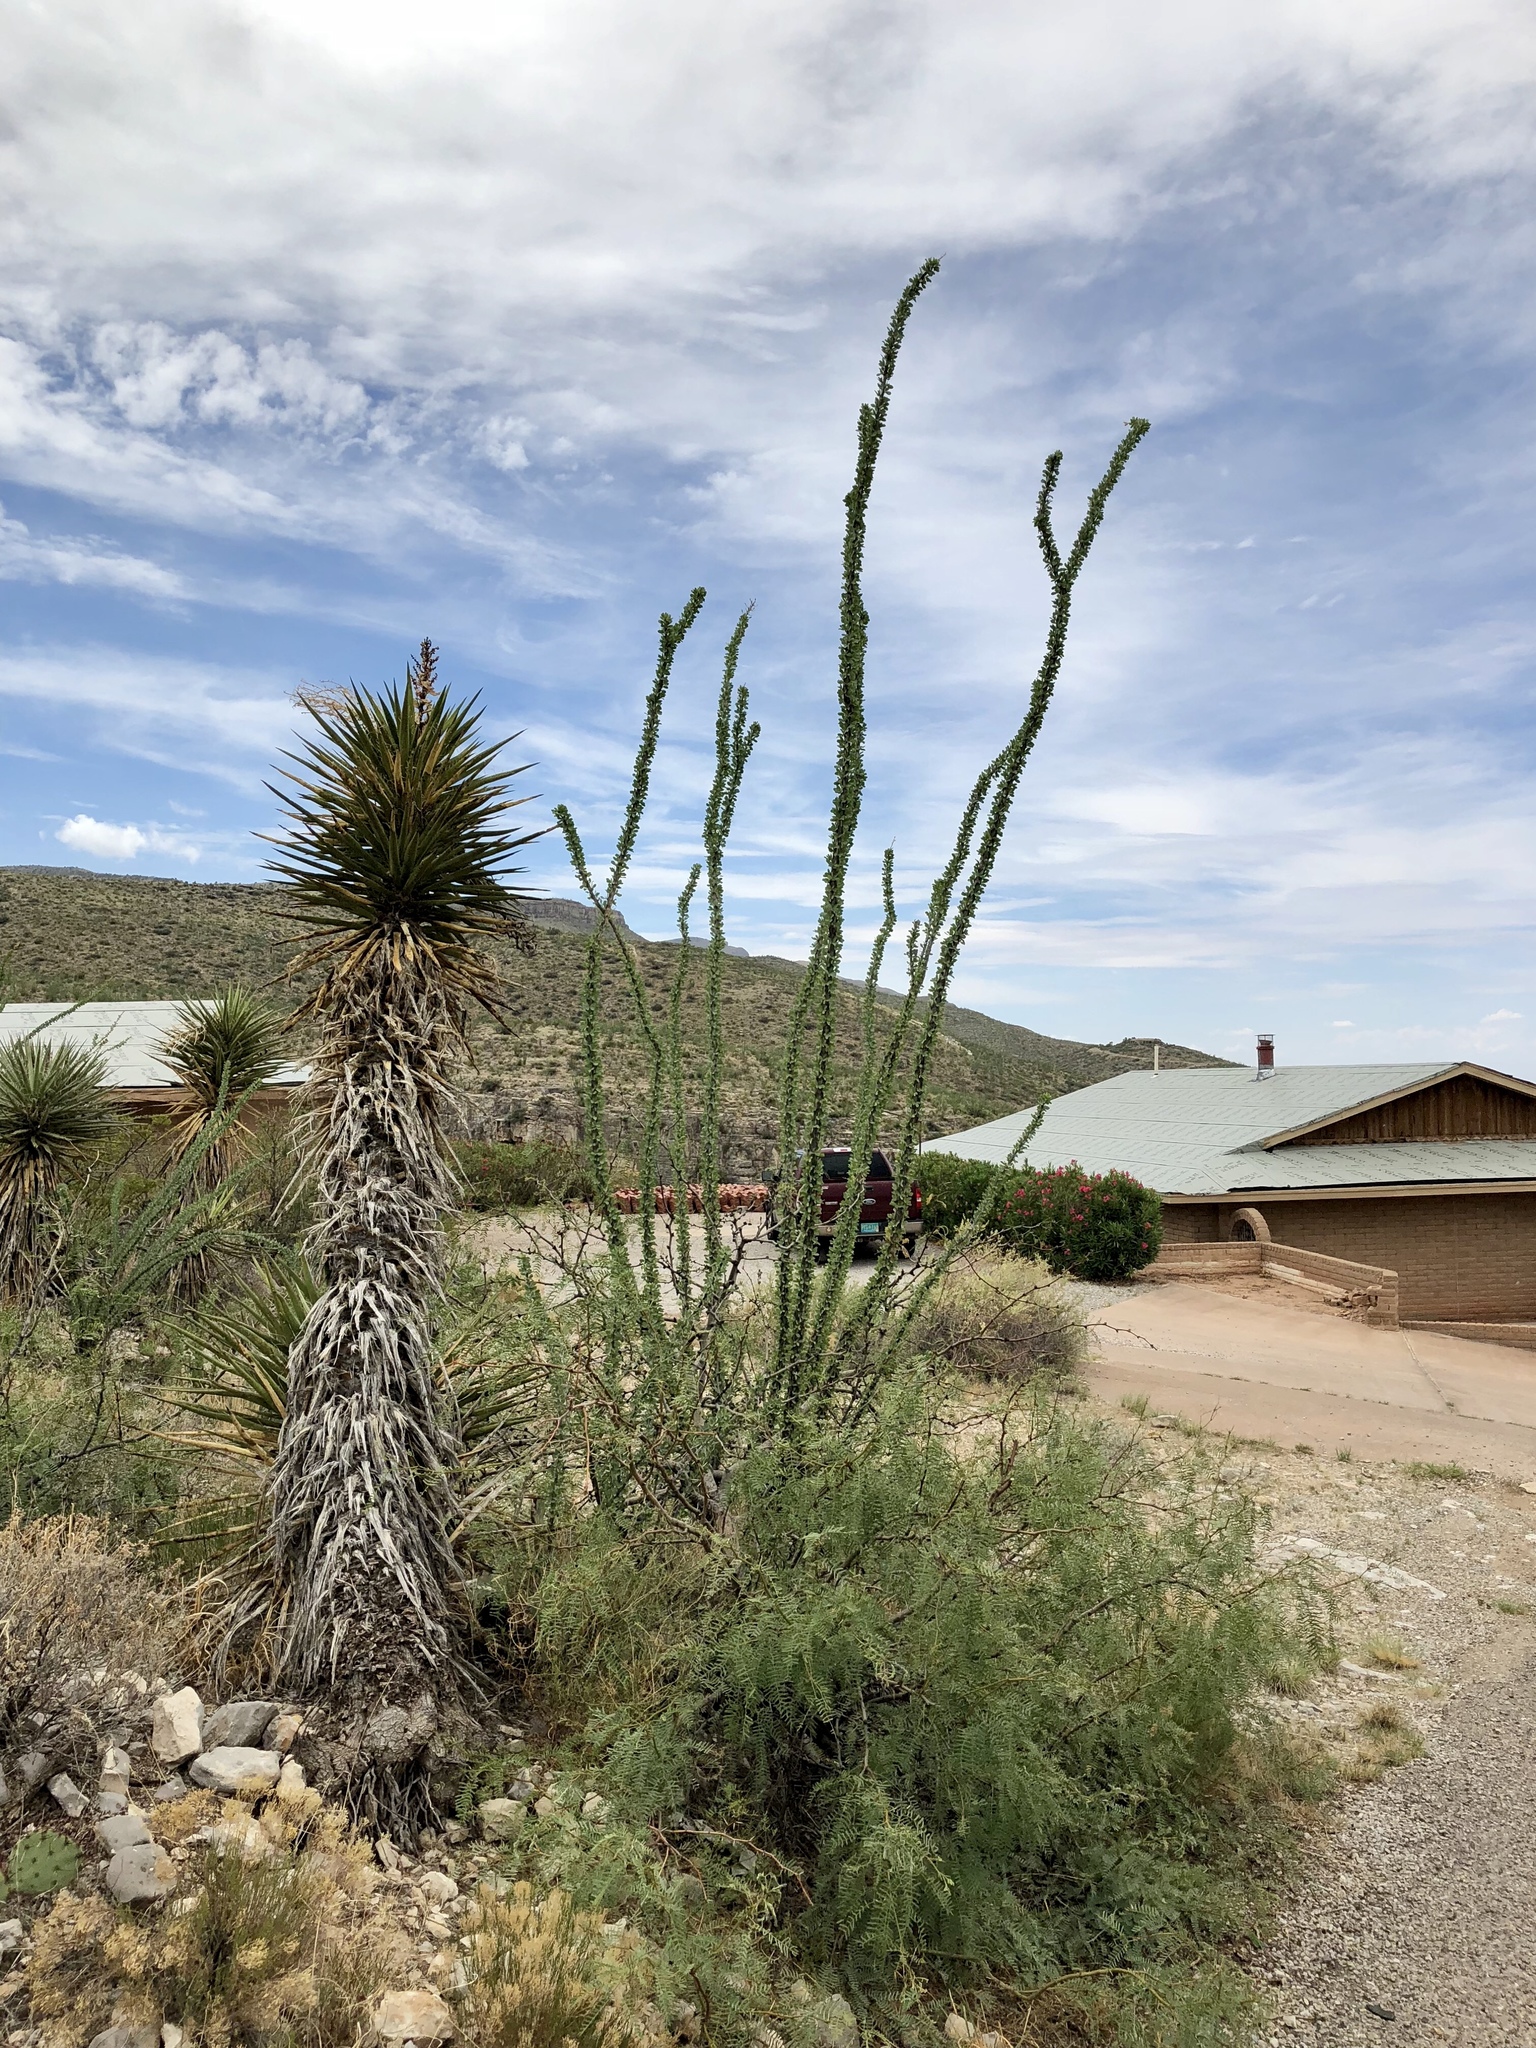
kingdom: Plantae
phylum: Tracheophyta
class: Magnoliopsida
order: Ericales
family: Fouquieriaceae
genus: Fouquieria
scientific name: Fouquieria splendens
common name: Vine-cactus
